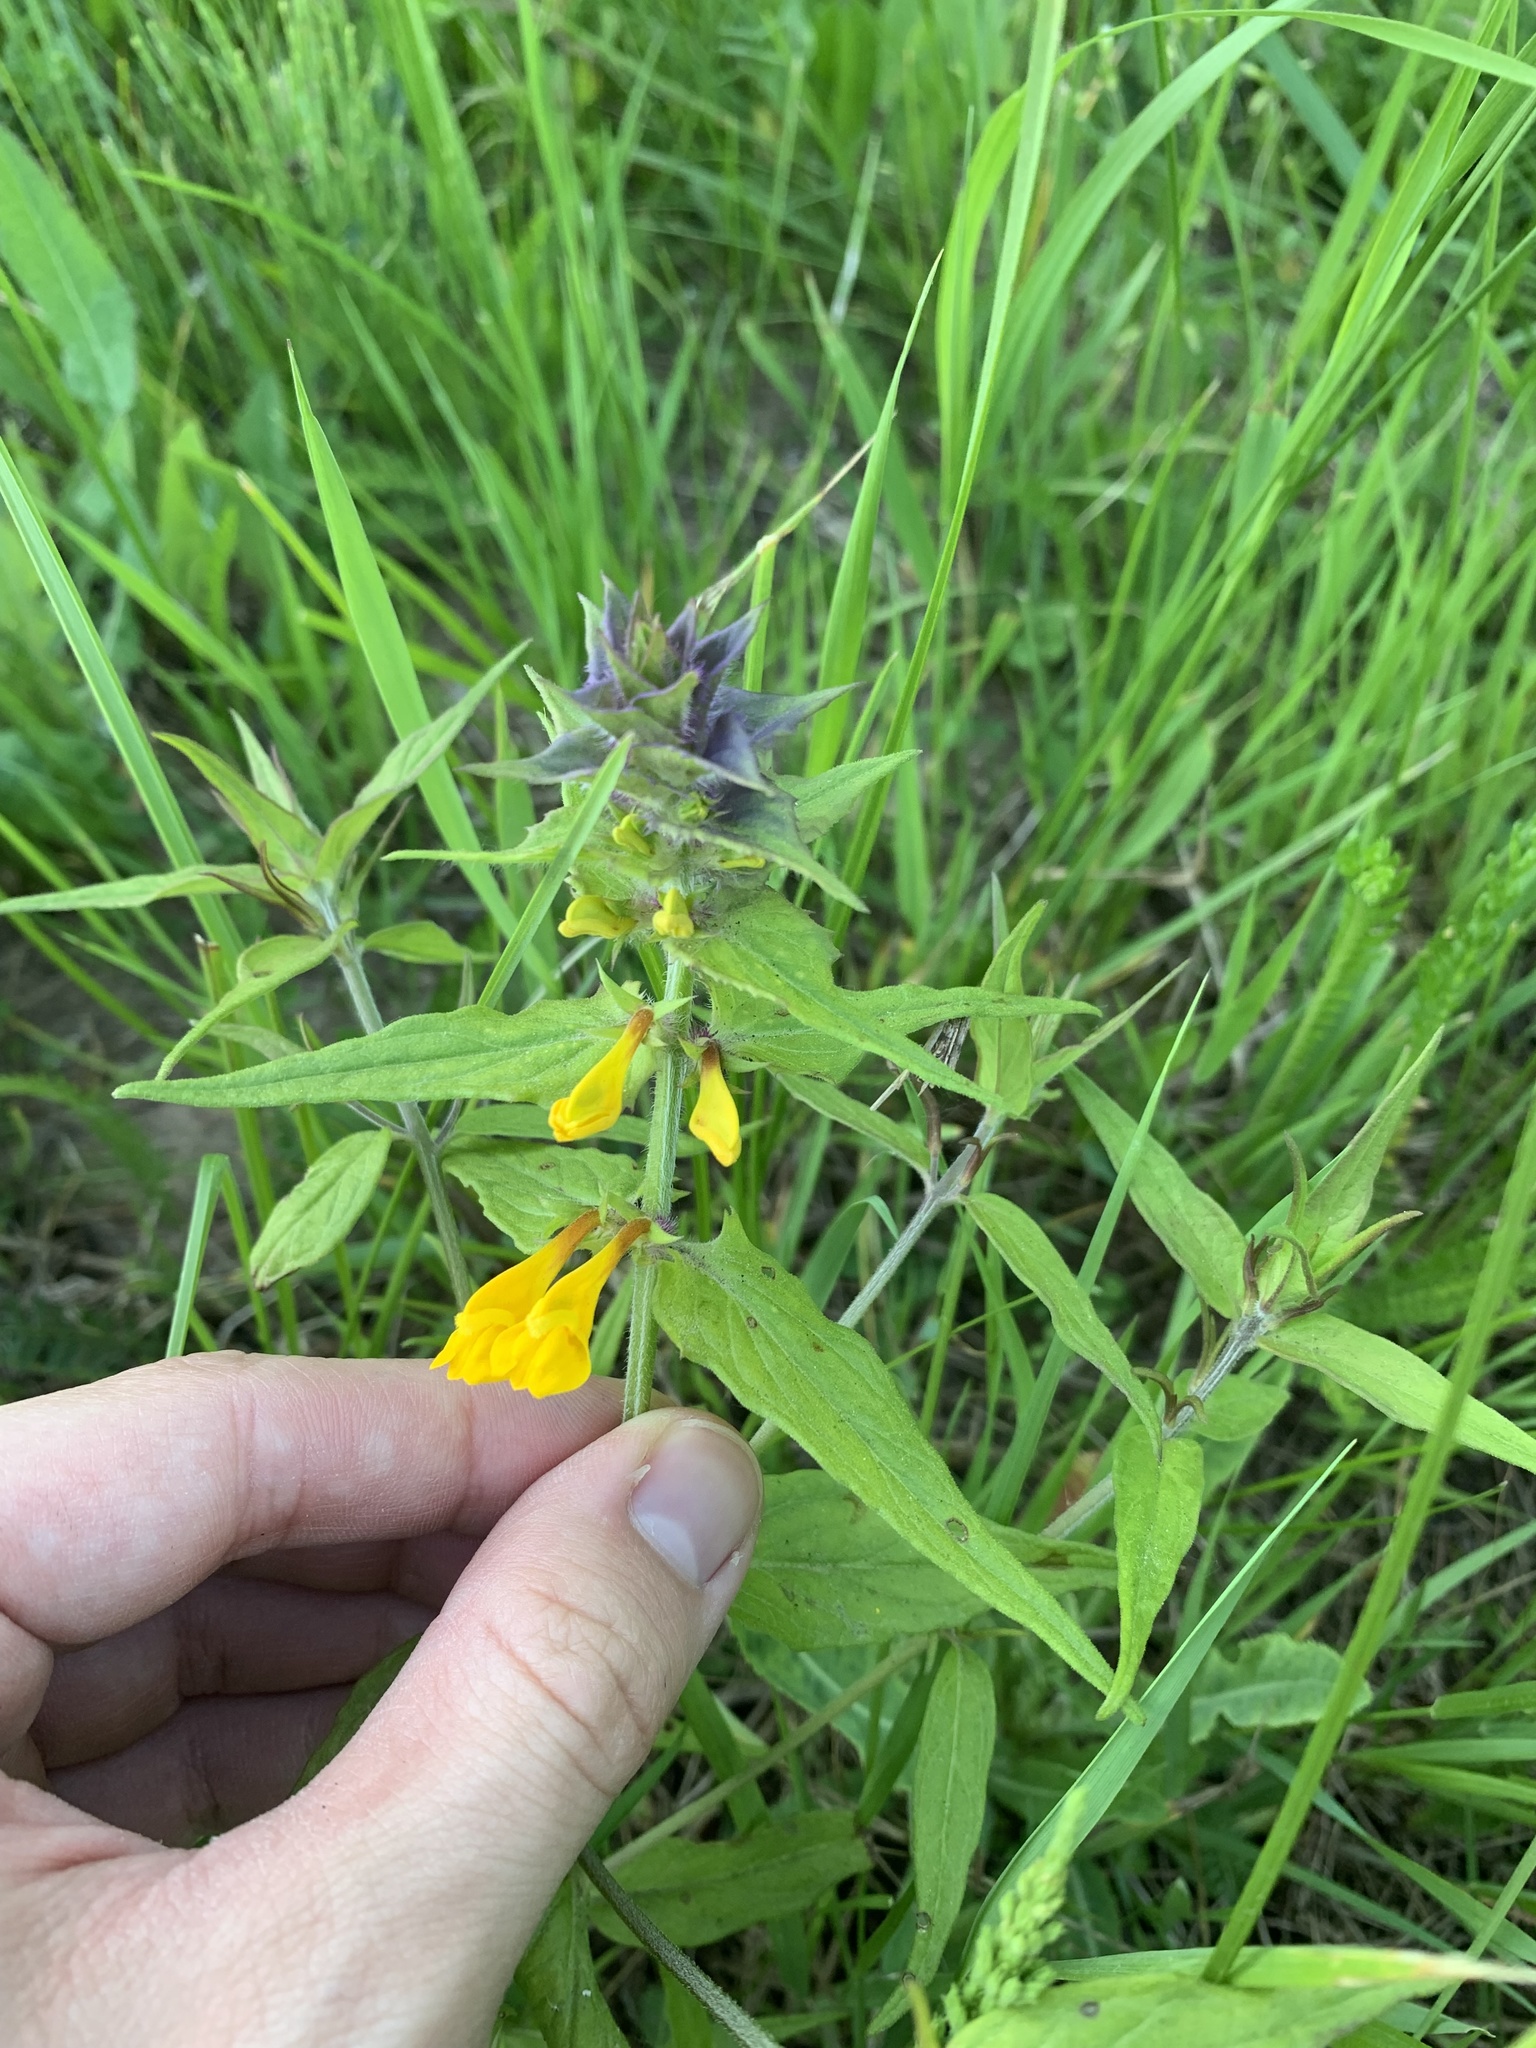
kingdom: Plantae
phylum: Tracheophyta
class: Magnoliopsida
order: Lamiales
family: Orobanchaceae
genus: Melampyrum
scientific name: Melampyrum nemorosum
